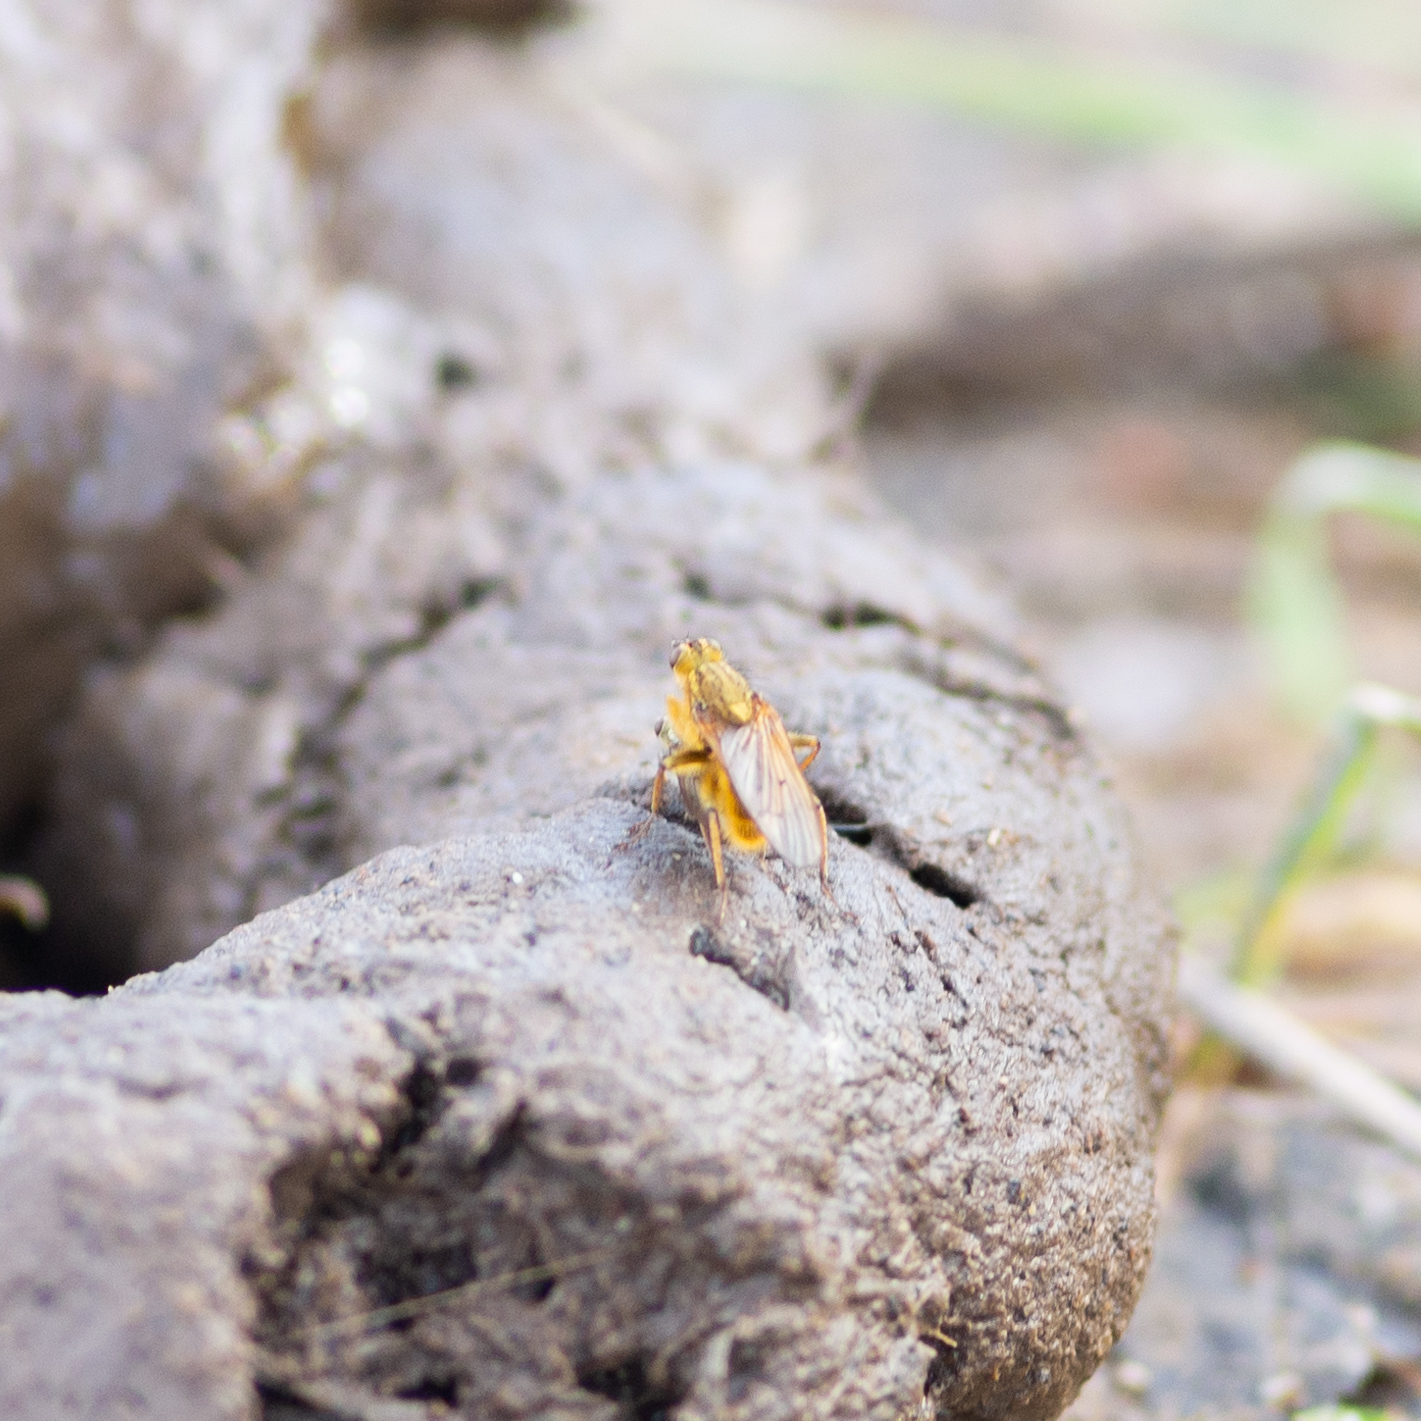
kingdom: Animalia
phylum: Arthropoda
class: Insecta
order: Diptera
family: Scathophagidae
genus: Scathophaga
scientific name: Scathophaga stercoraria
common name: Yellow dung fly
